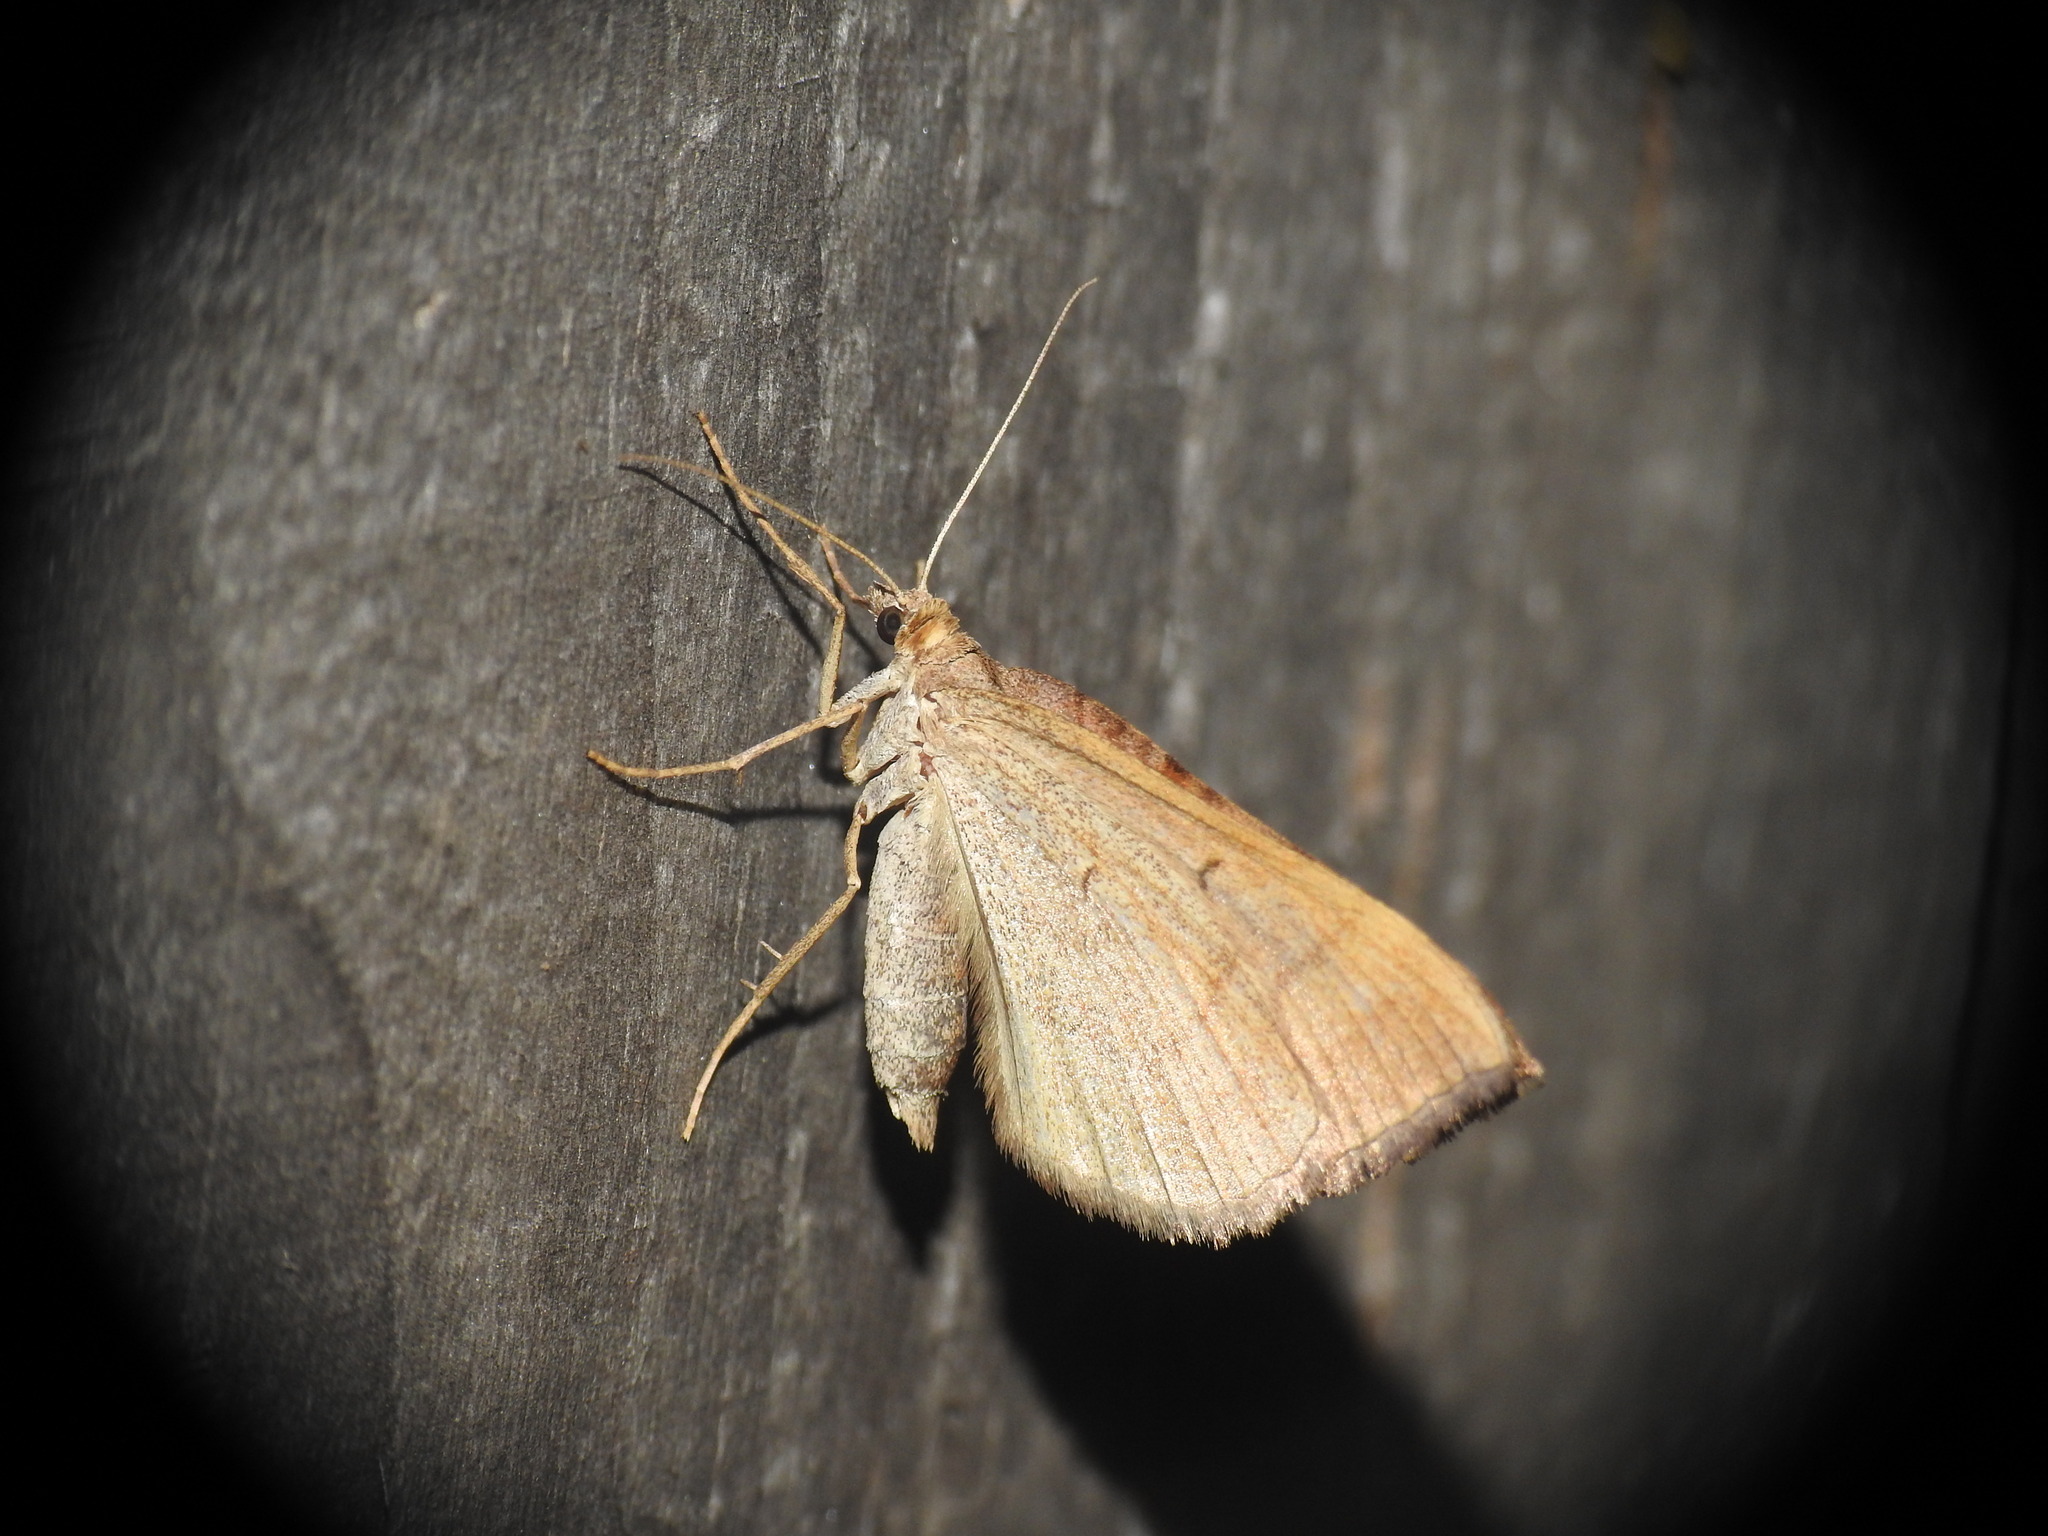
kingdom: Animalia
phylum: Arthropoda
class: Insecta
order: Lepidoptera
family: Geometridae
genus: Scotopteryx
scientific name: Scotopteryx chenopodiata
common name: Shaded broad-bar
